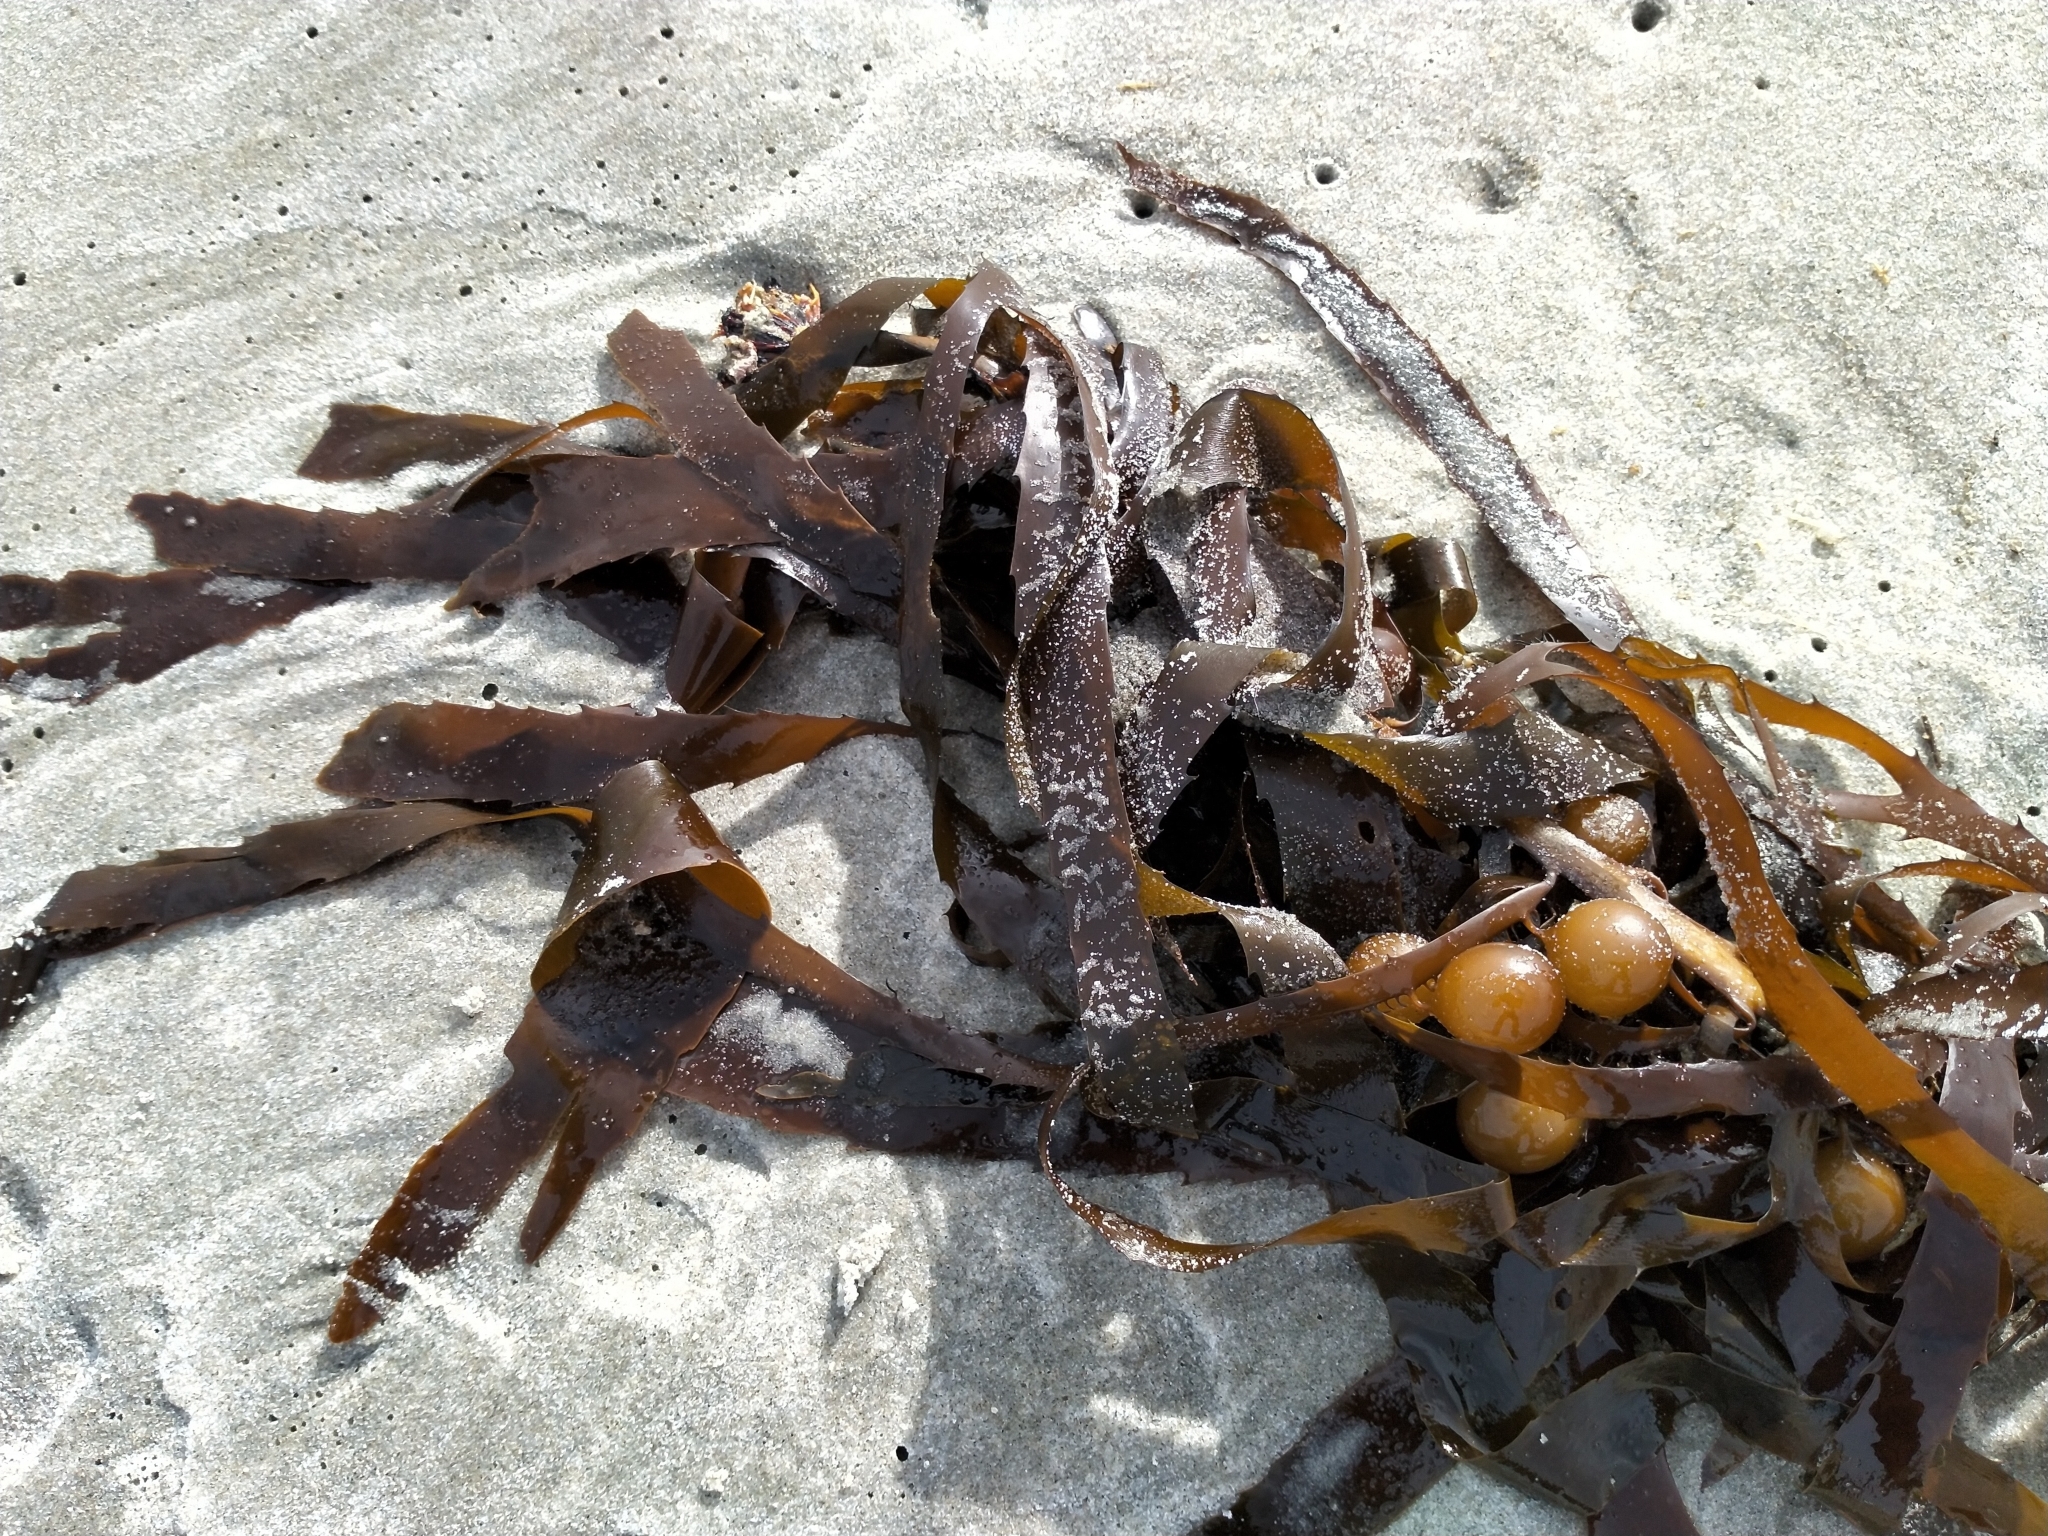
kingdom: Chromista
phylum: Ochrophyta
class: Phaeophyceae
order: Fucales
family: Seirococcaceae
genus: Marginariella
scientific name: Marginariella urvilliana
